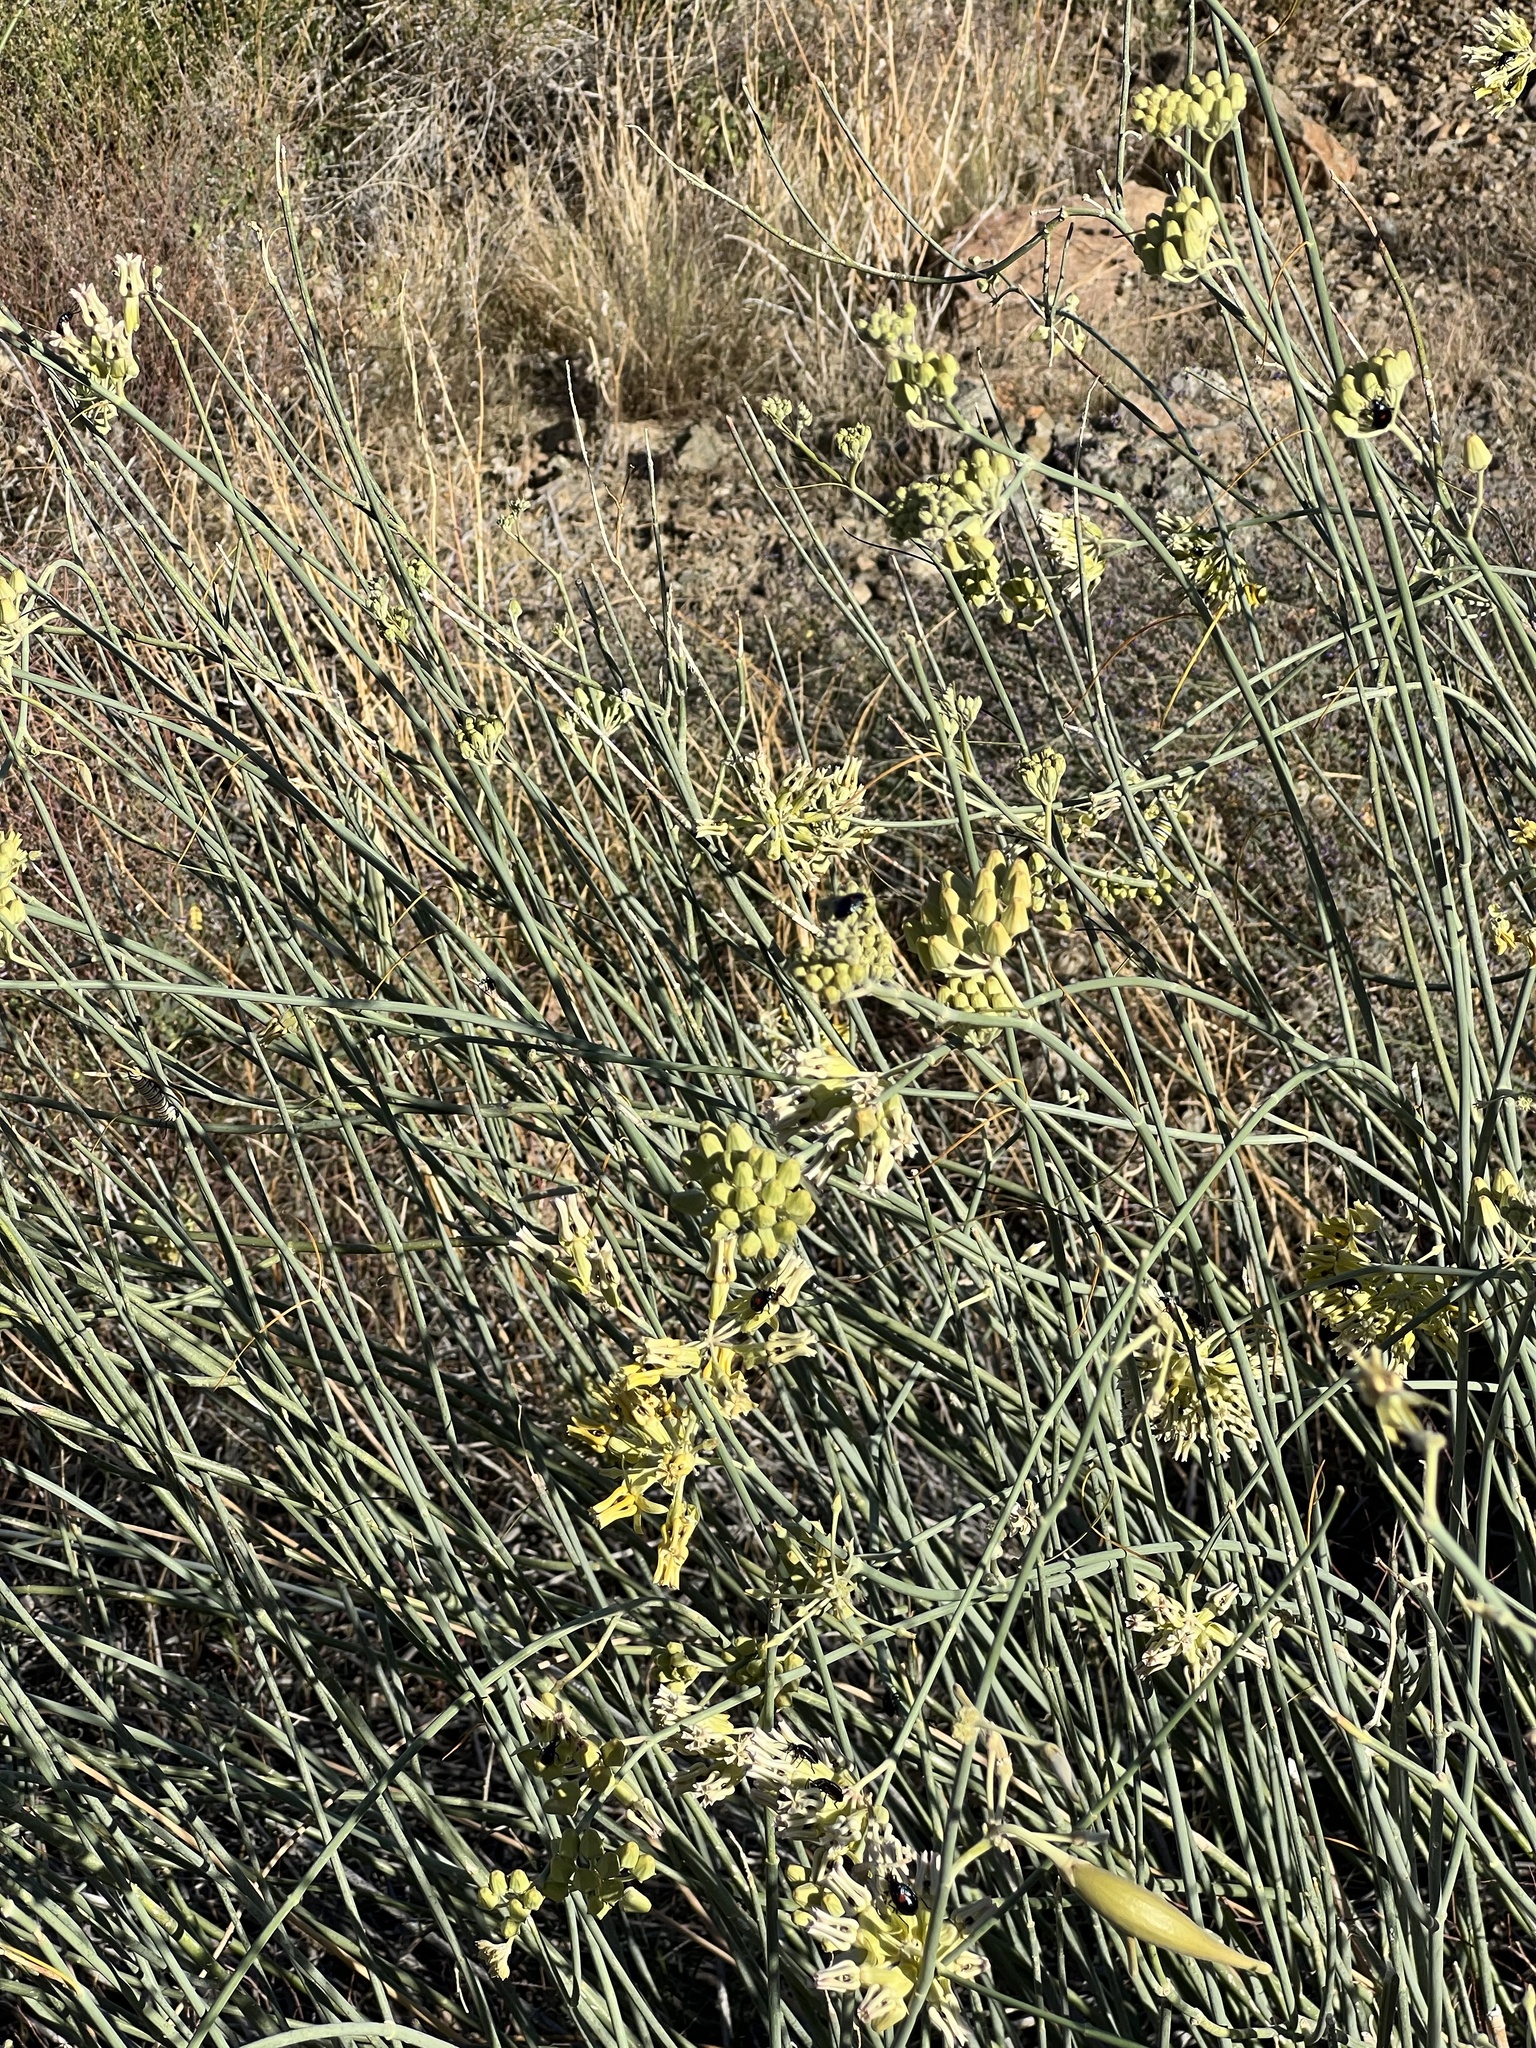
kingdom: Plantae
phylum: Tracheophyta
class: Magnoliopsida
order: Gentianales
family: Apocynaceae
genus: Asclepias
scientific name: Asclepias subulata
